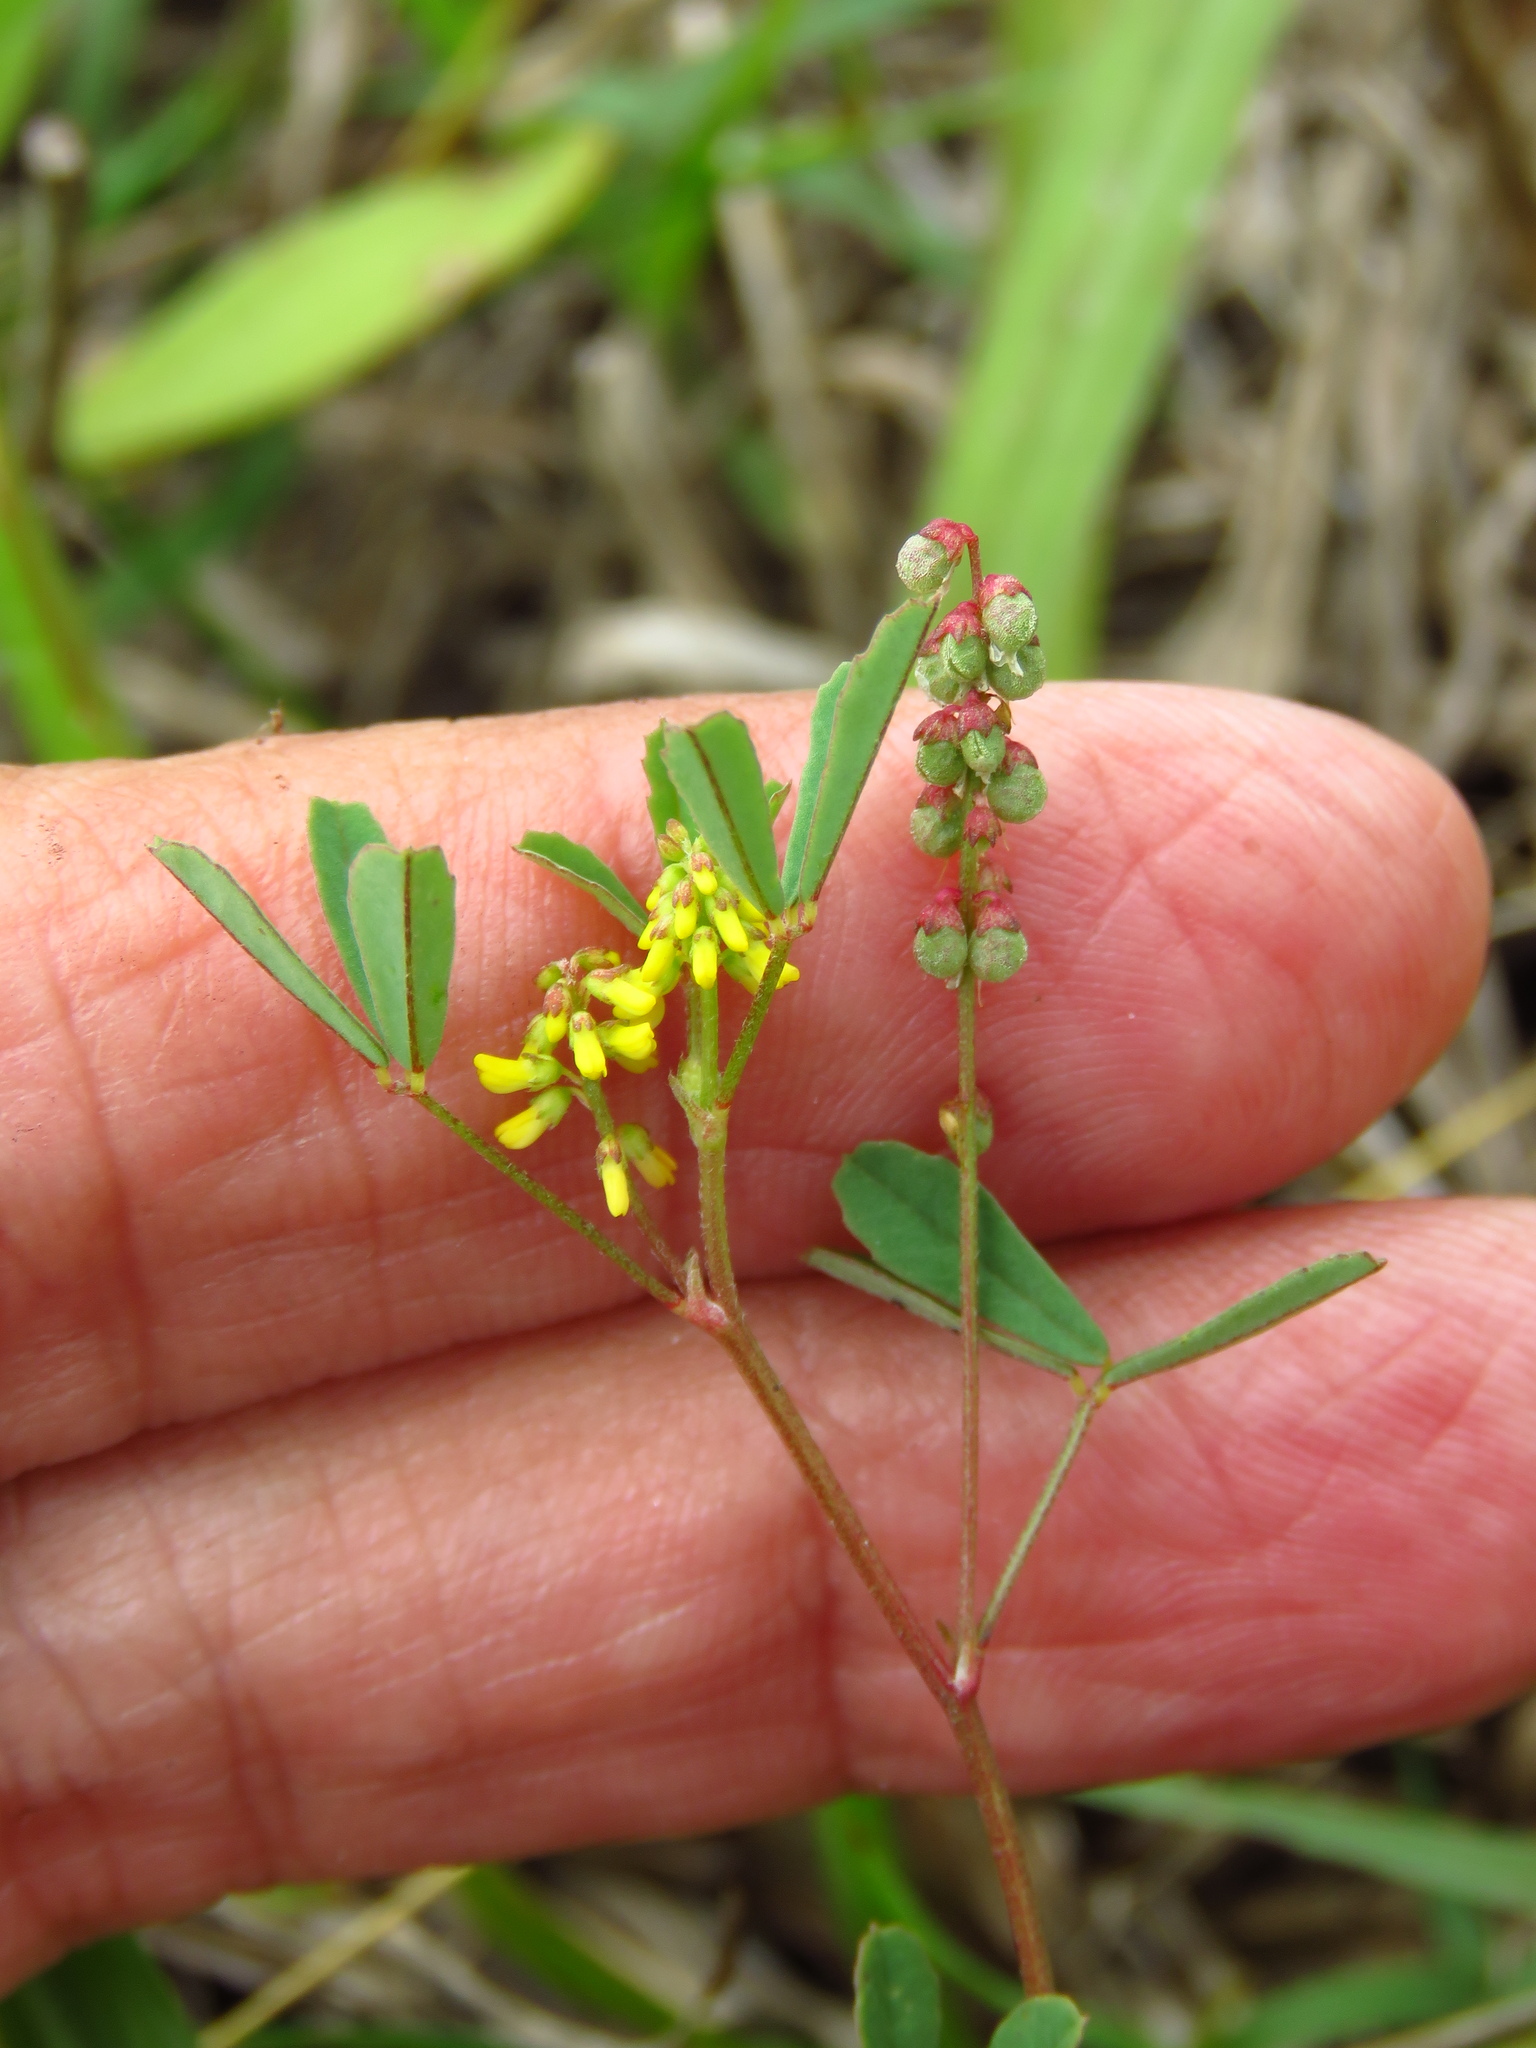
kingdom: Plantae
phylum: Tracheophyta
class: Magnoliopsida
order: Fabales
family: Fabaceae
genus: Melilotus
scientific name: Melilotus indicus
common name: Small melilot
